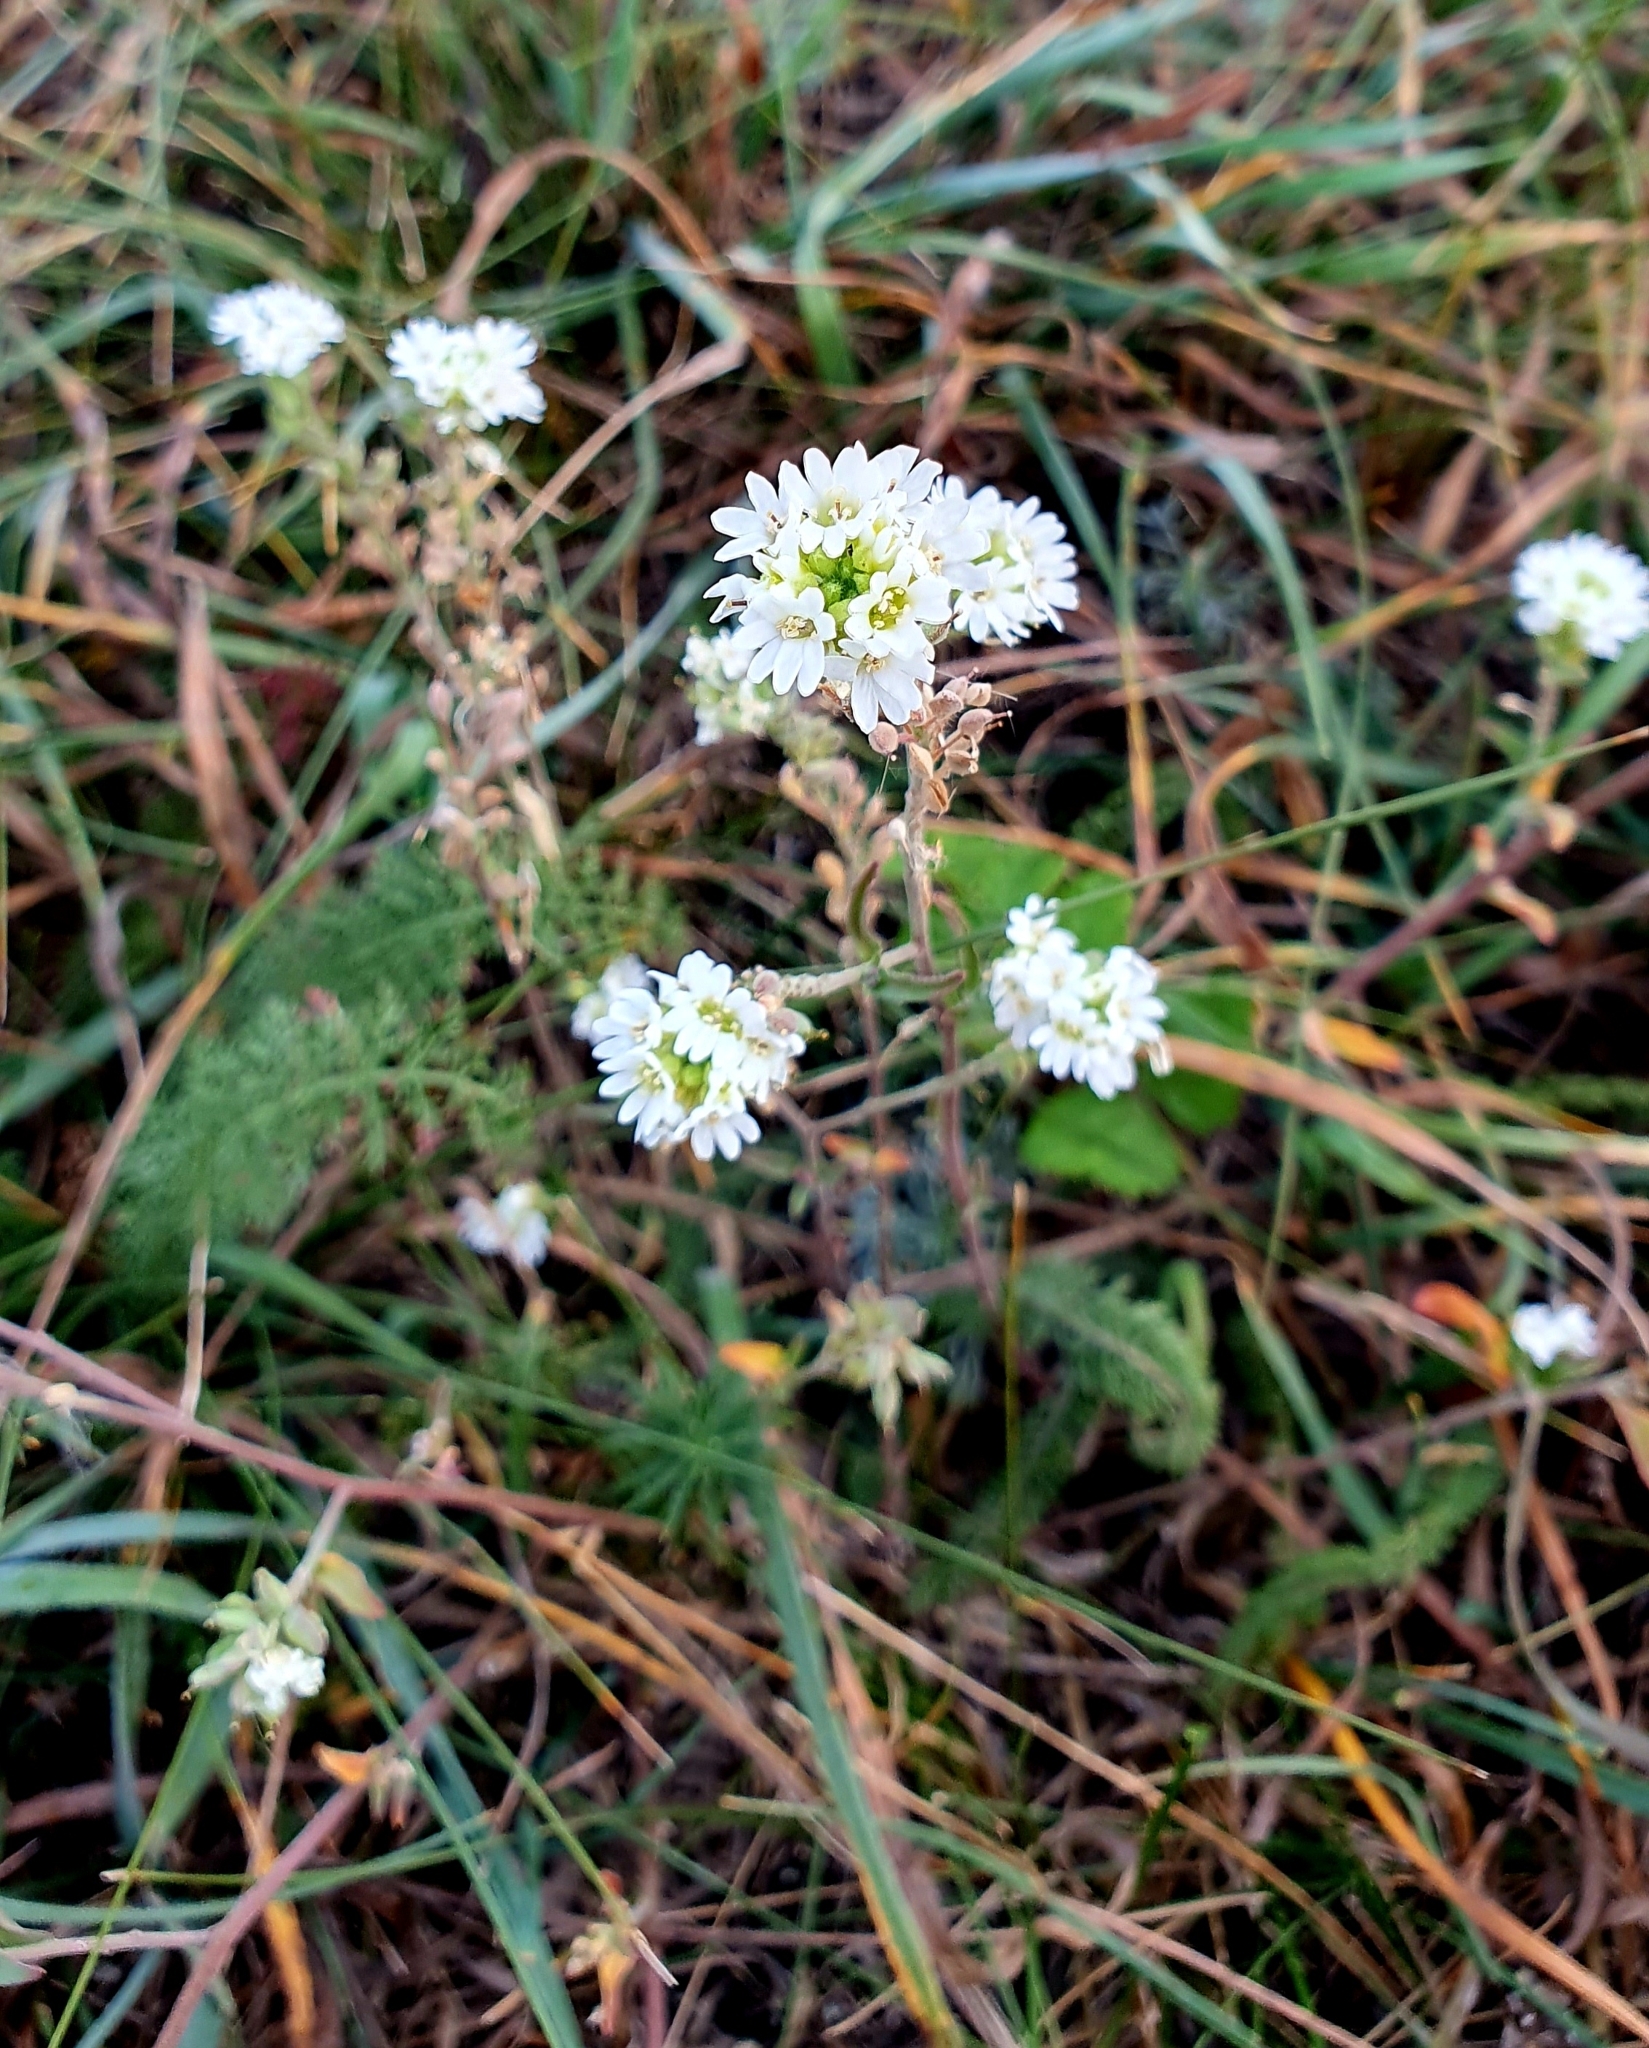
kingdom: Plantae
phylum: Tracheophyta
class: Magnoliopsida
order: Brassicales
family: Brassicaceae
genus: Berteroa
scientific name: Berteroa incana
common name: Hoary alison
